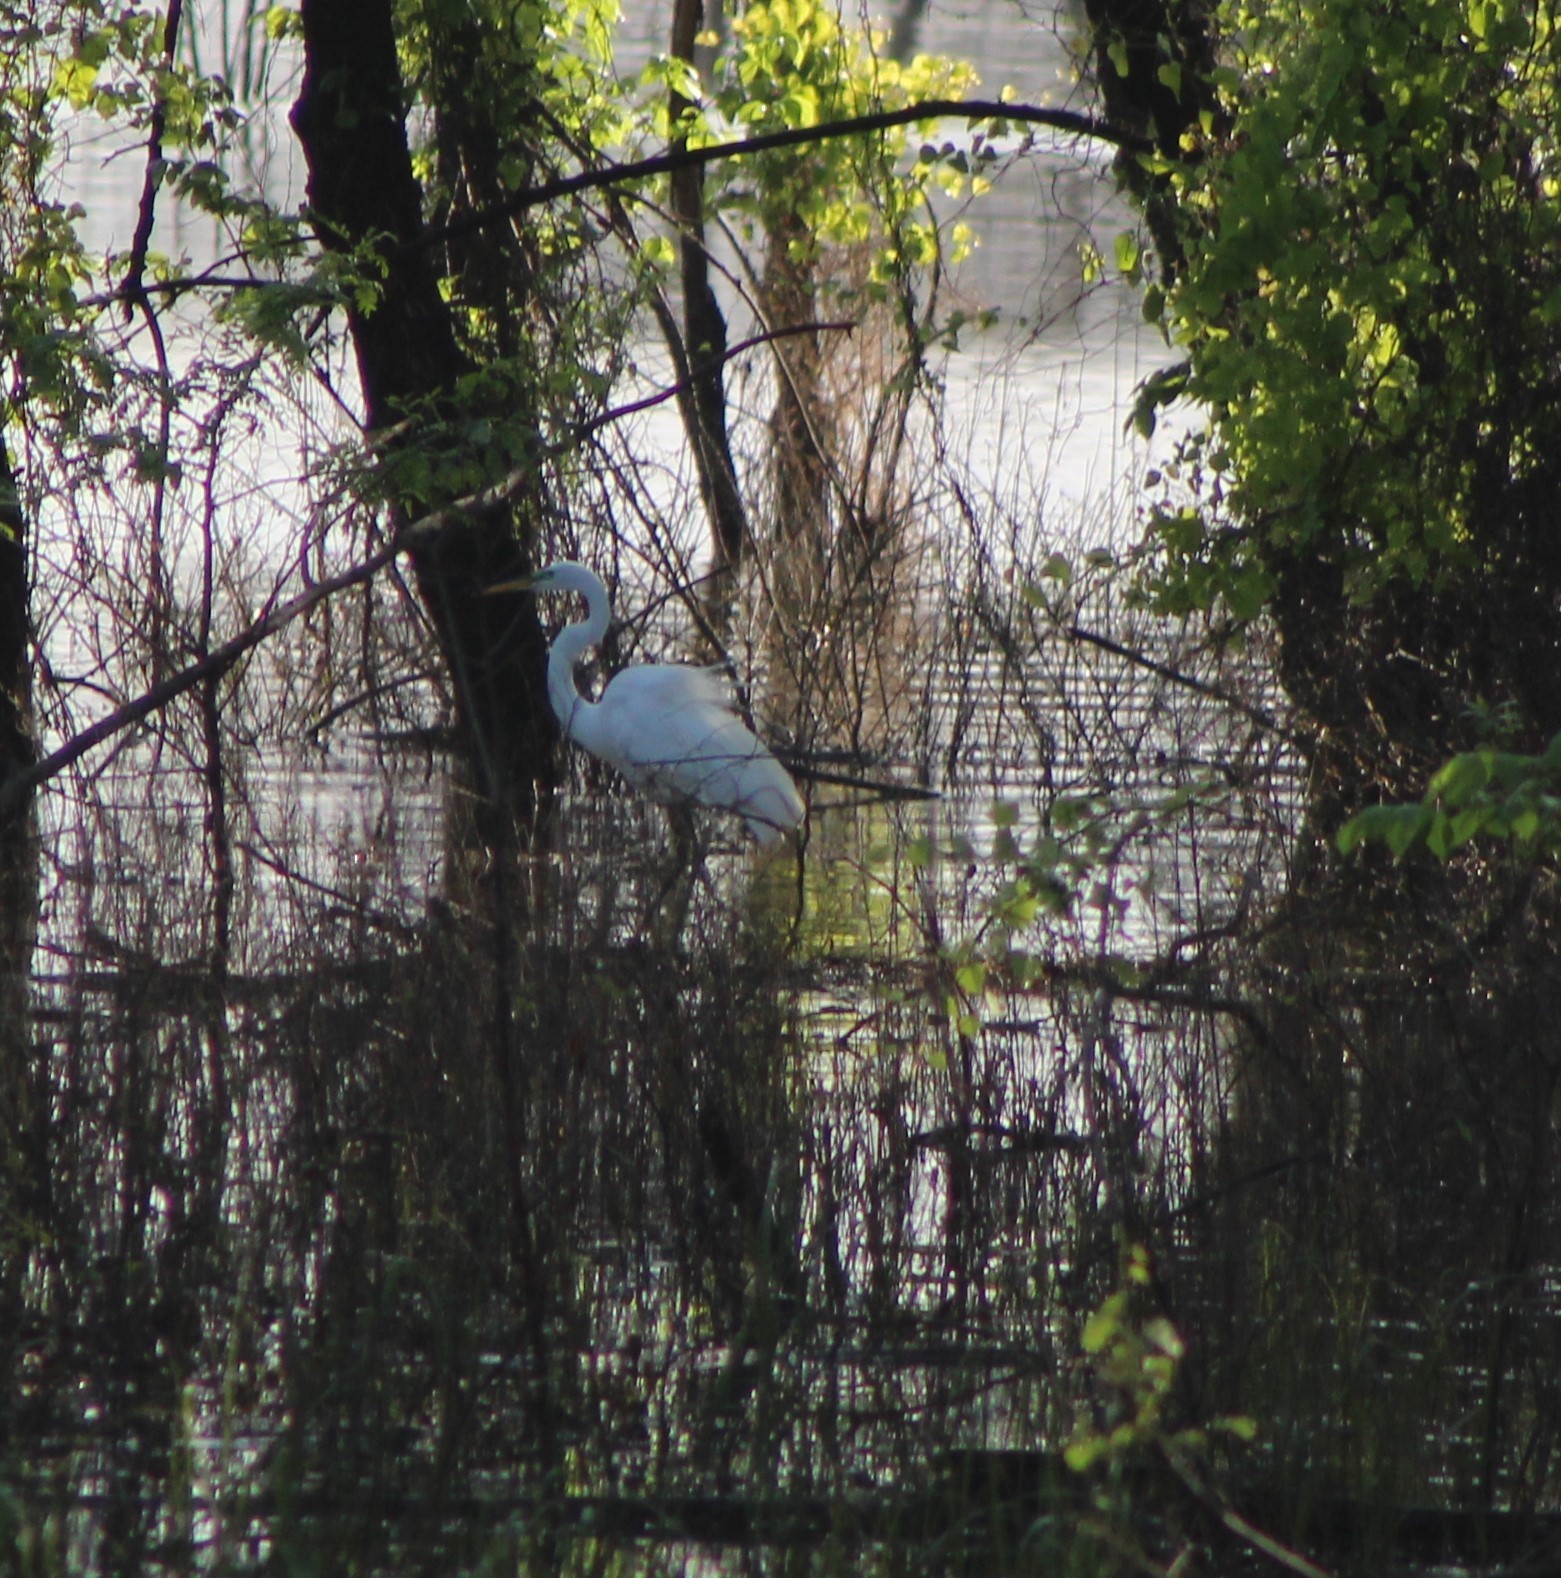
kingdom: Animalia
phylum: Chordata
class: Aves
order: Pelecaniformes
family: Ardeidae
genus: Ardea
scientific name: Ardea alba
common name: Great egret
